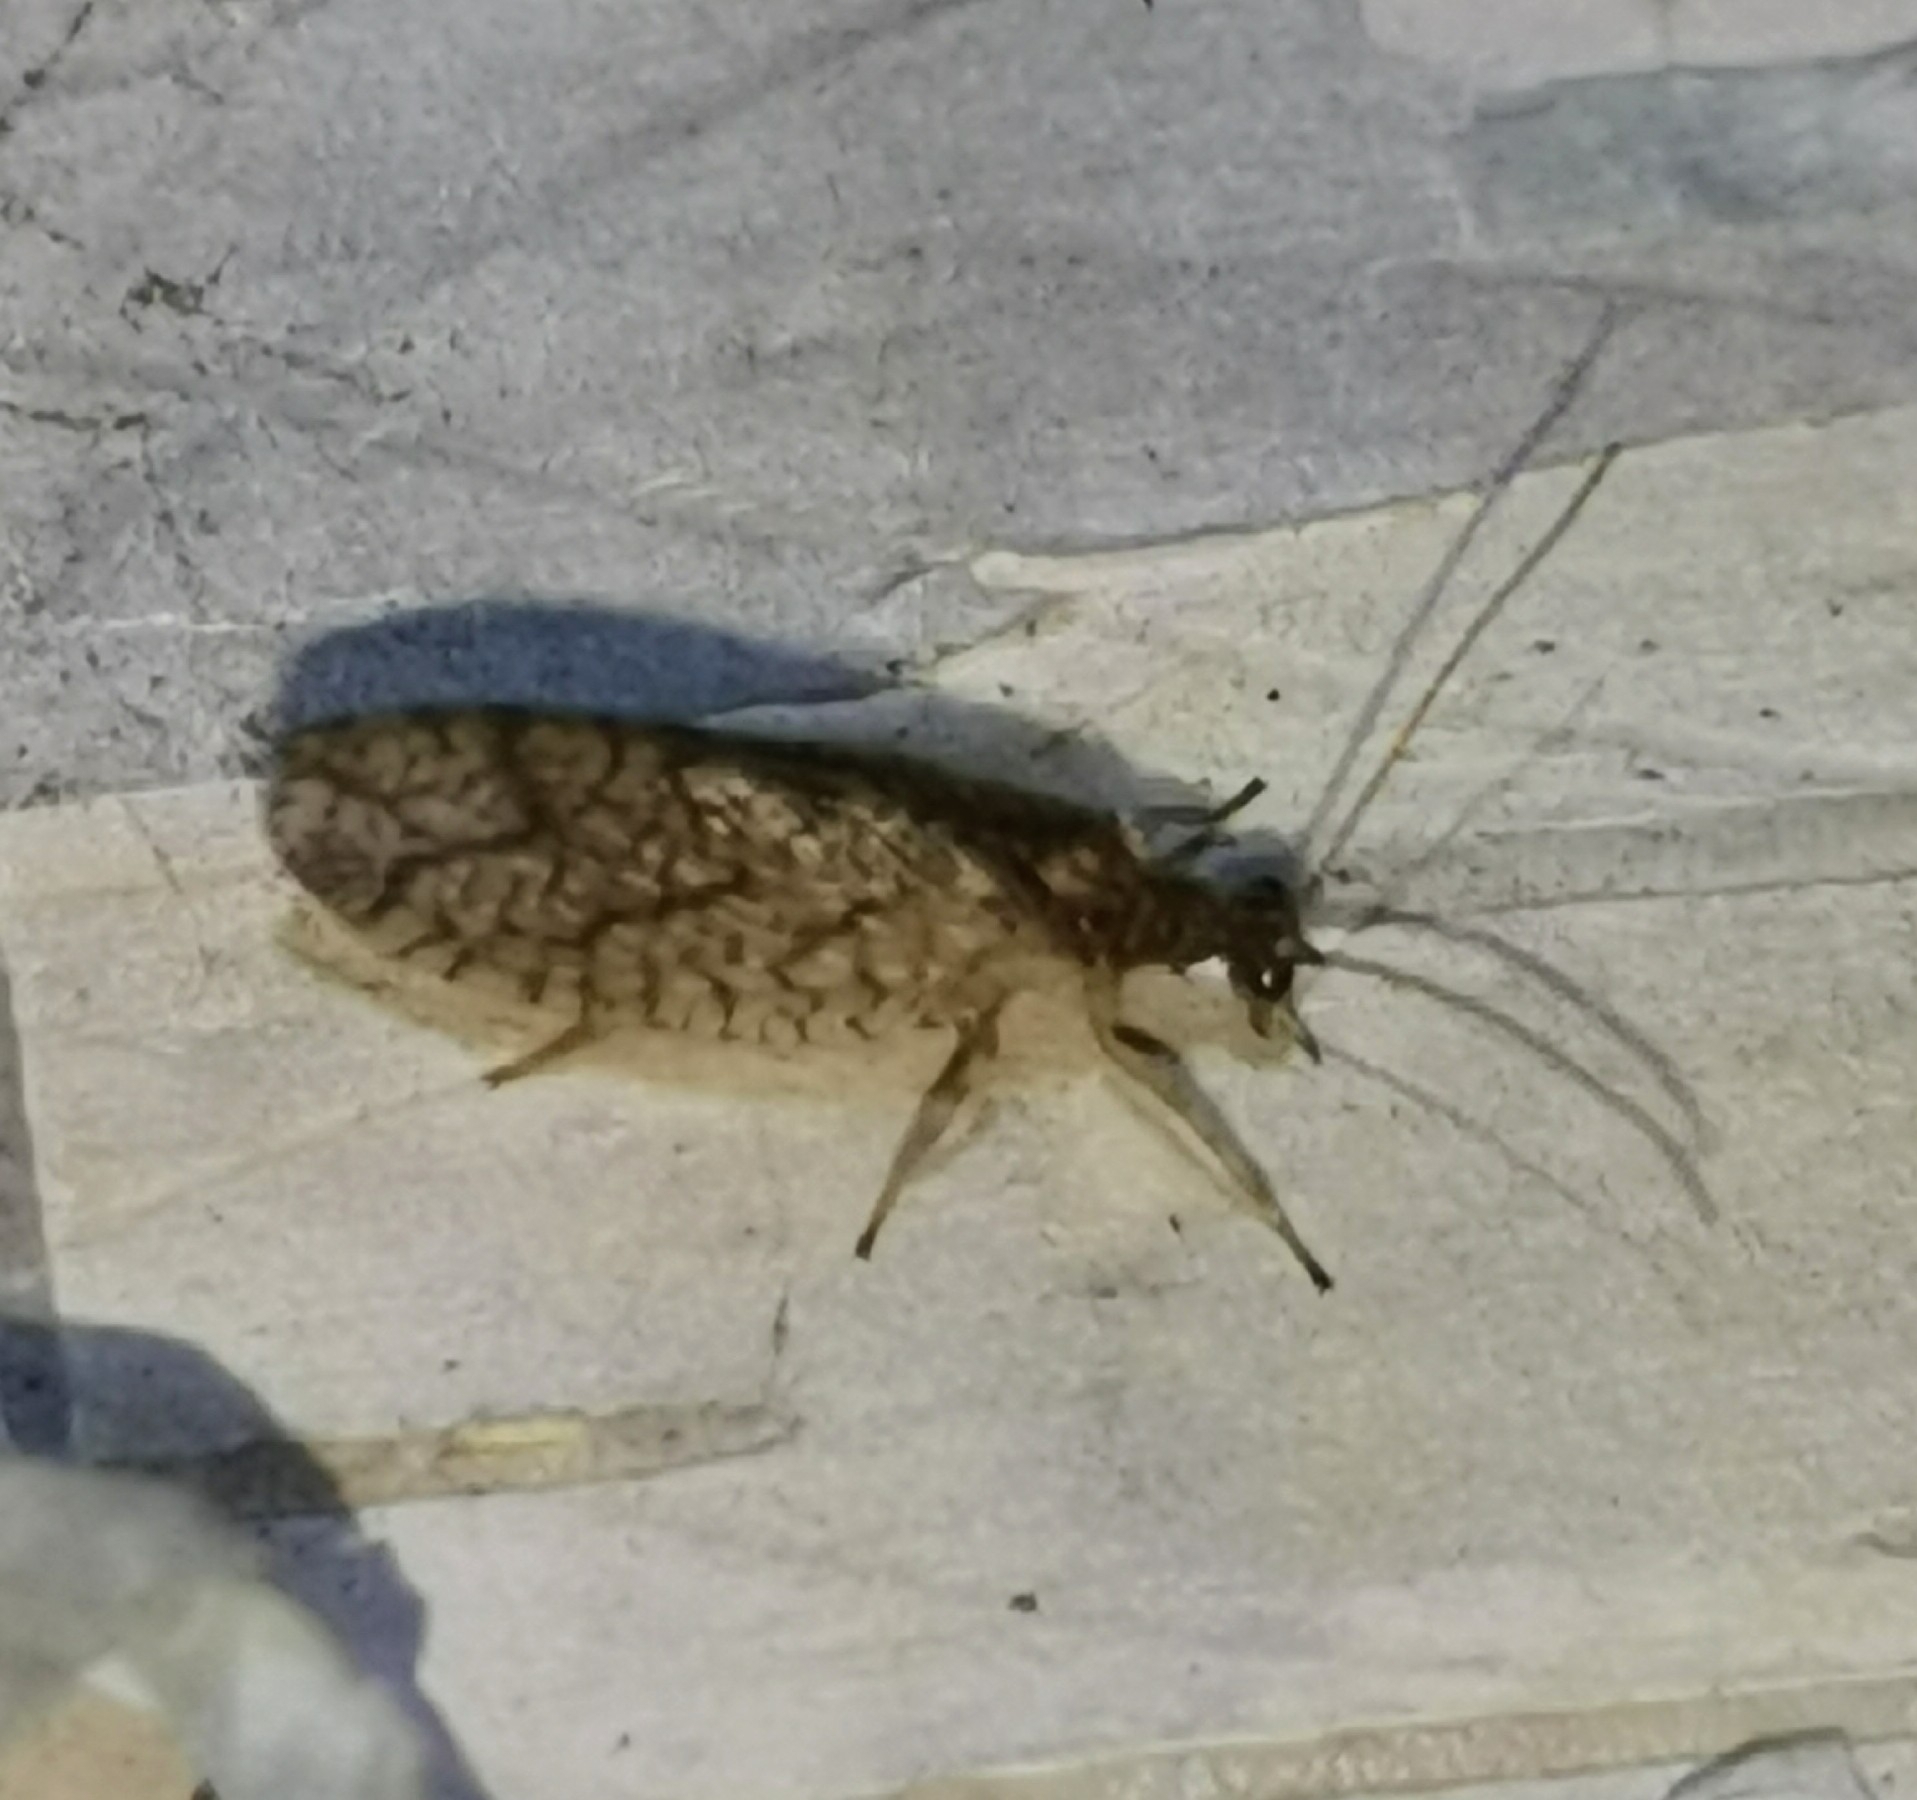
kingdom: Animalia
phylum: Arthropoda
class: Insecta
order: Neuroptera
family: Hemerobiidae
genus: Micromus
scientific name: Micromus angulatus
